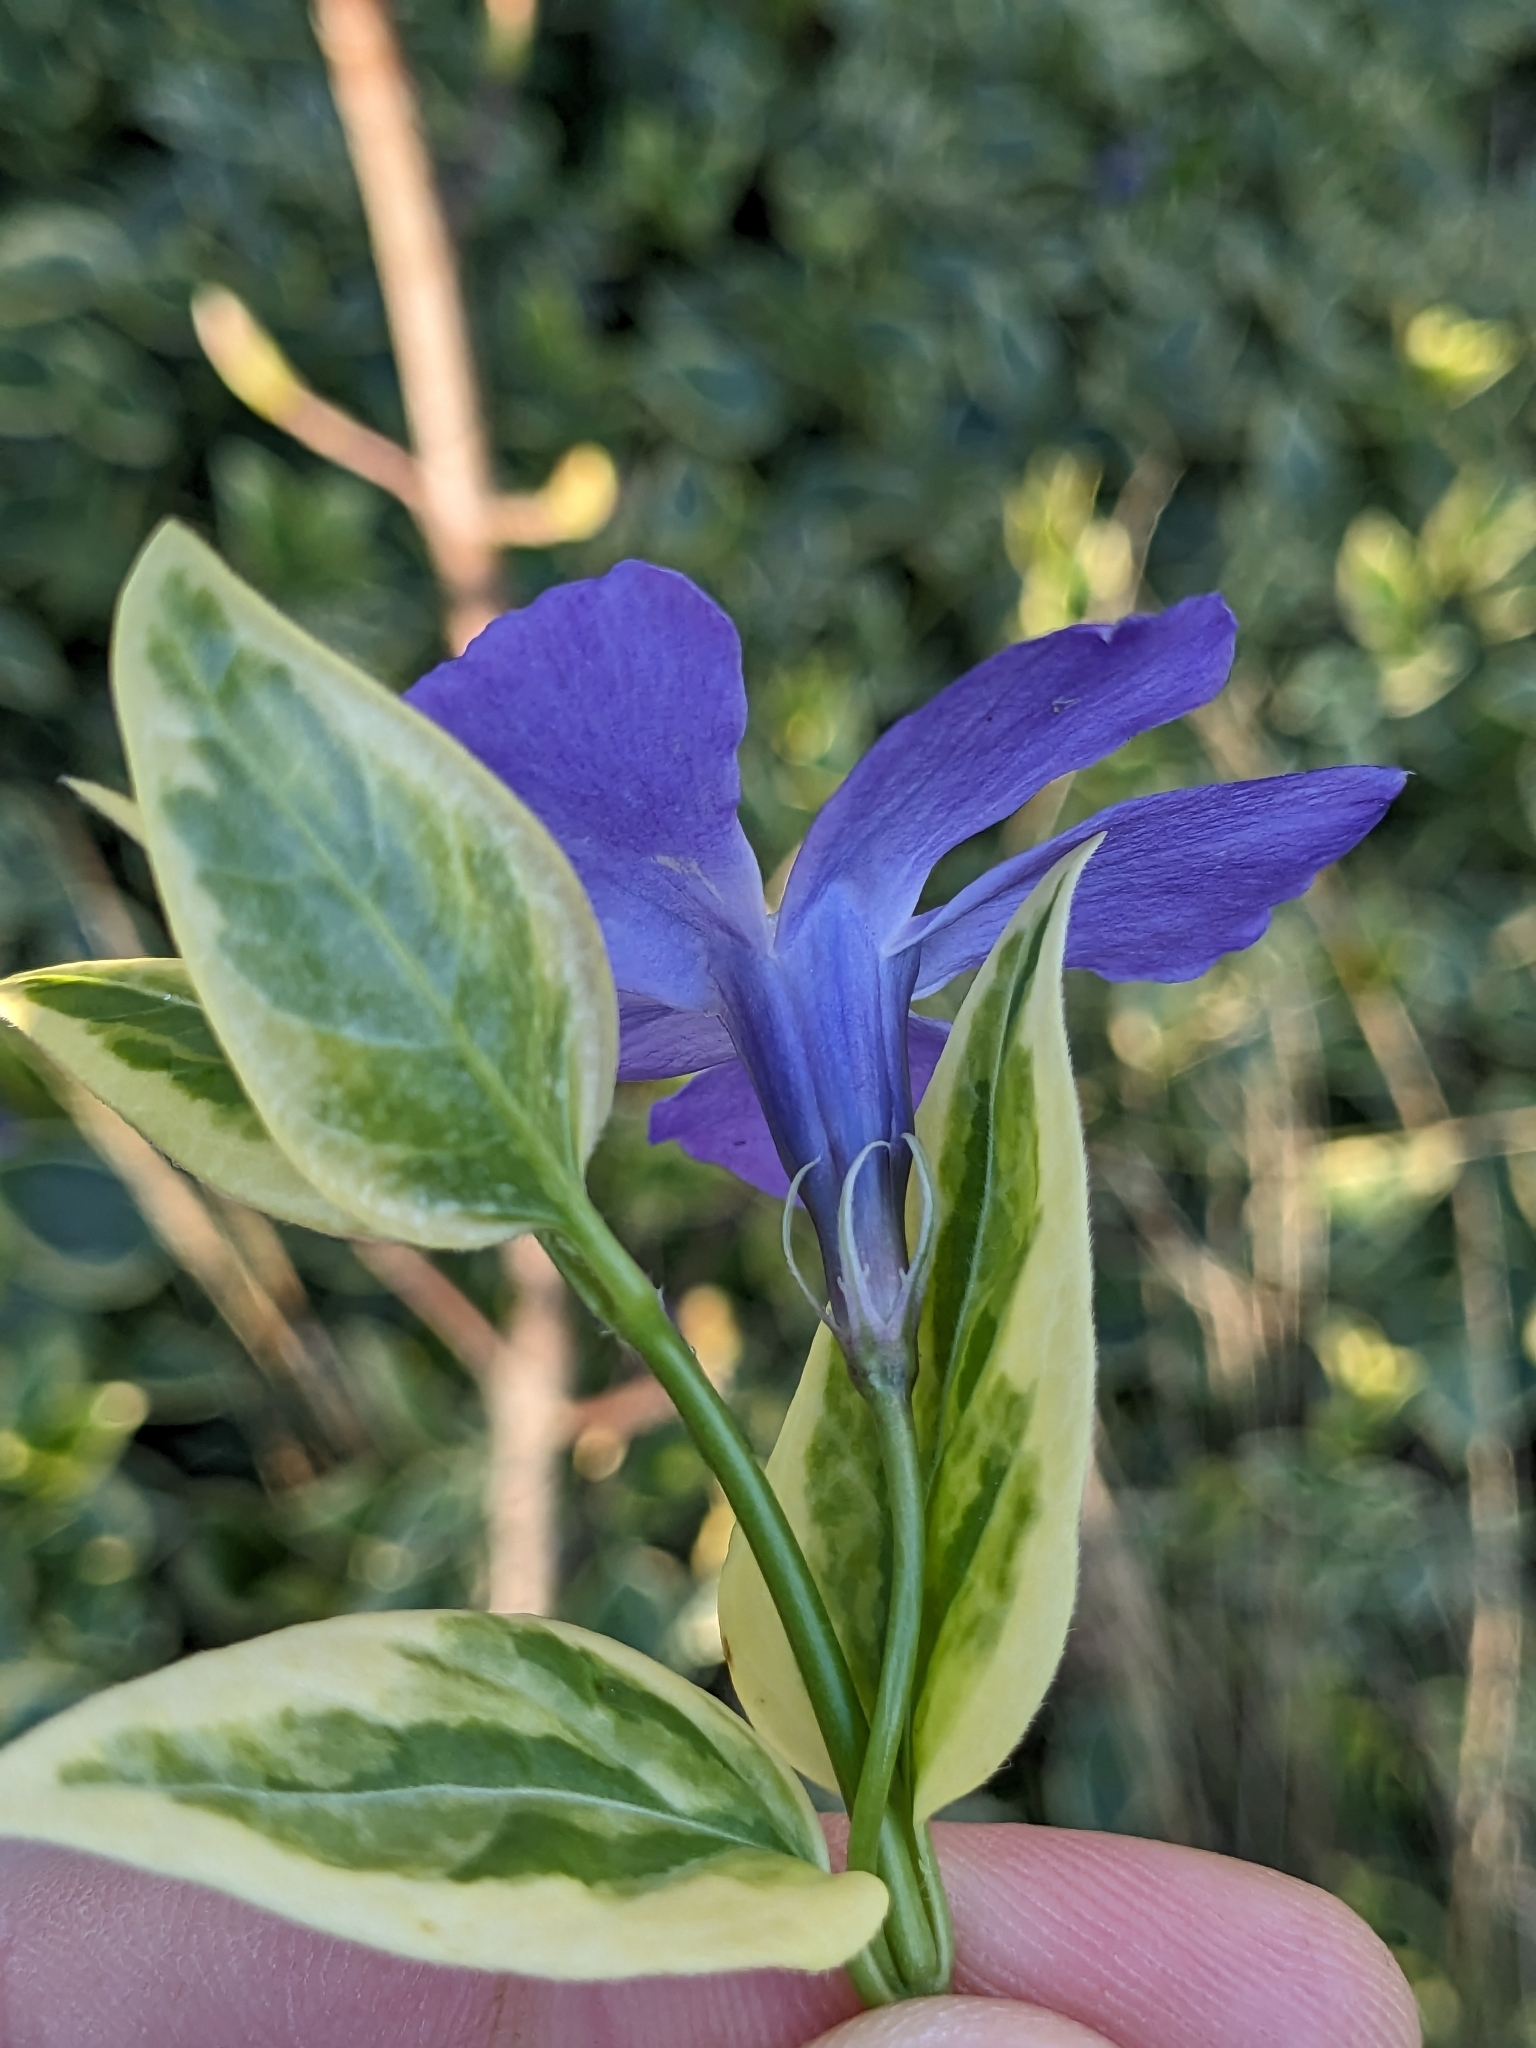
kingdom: Plantae
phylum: Tracheophyta
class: Magnoliopsida
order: Gentianales
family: Apocynaceae
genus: Vinca
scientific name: Vinca major
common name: Greater periwinkle
